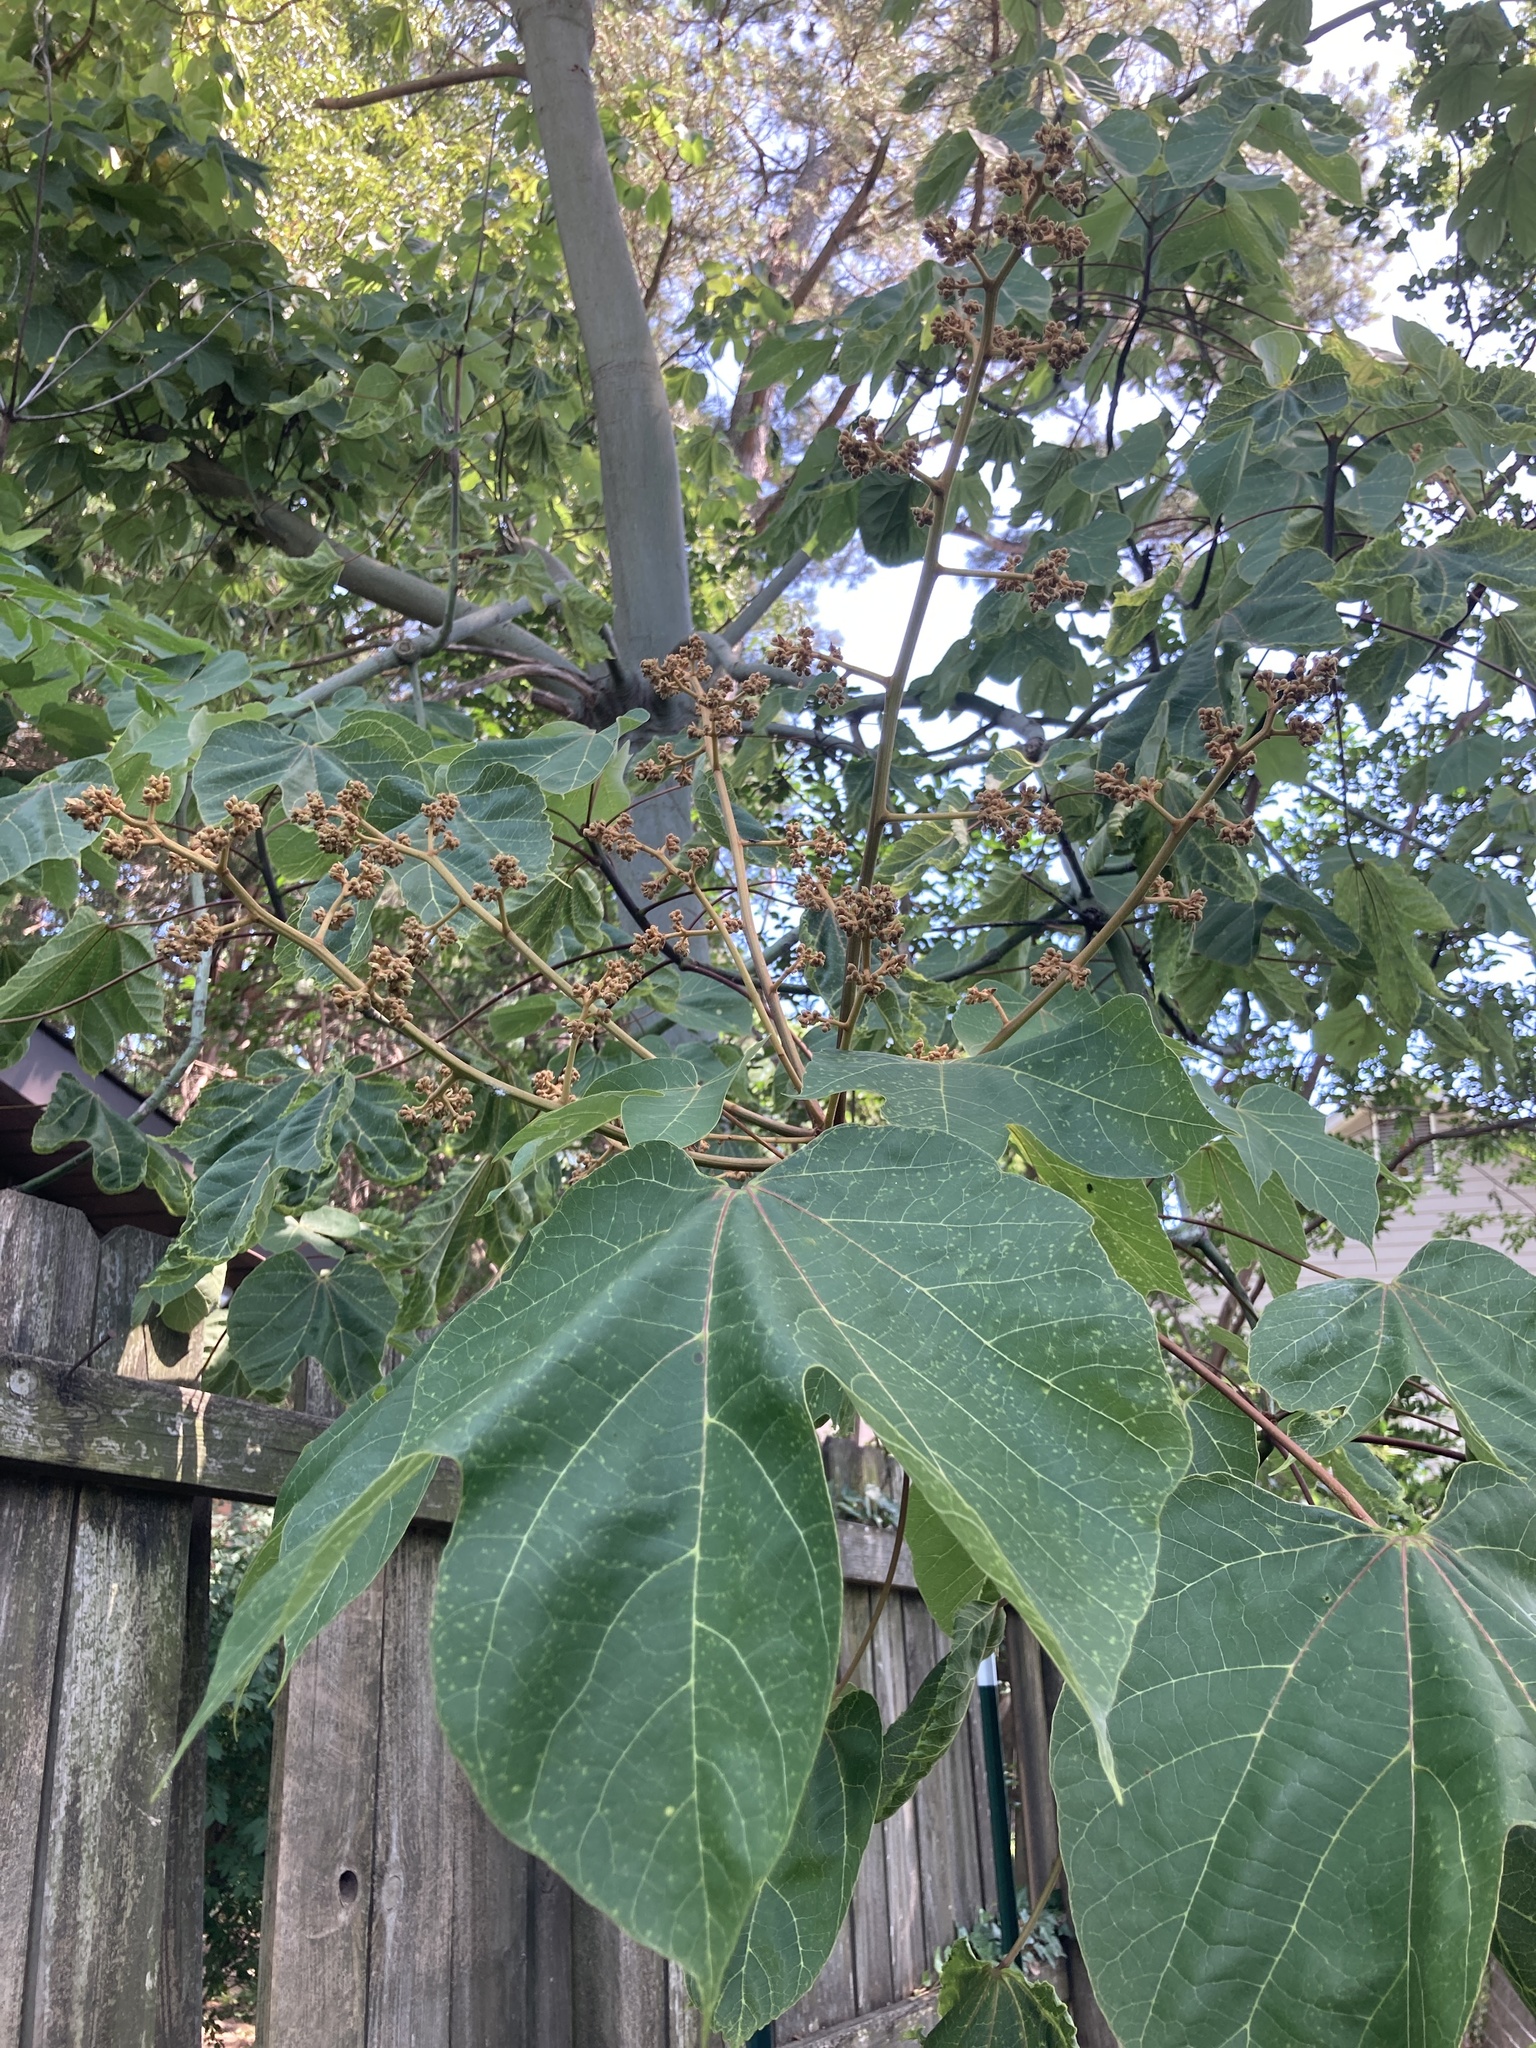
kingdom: Plantae
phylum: Tracheophyta
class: Magnoliopsida
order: Malvales
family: Malvaceae
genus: Firmiana
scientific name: Firmiana simplex
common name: Chinese parasoltree
